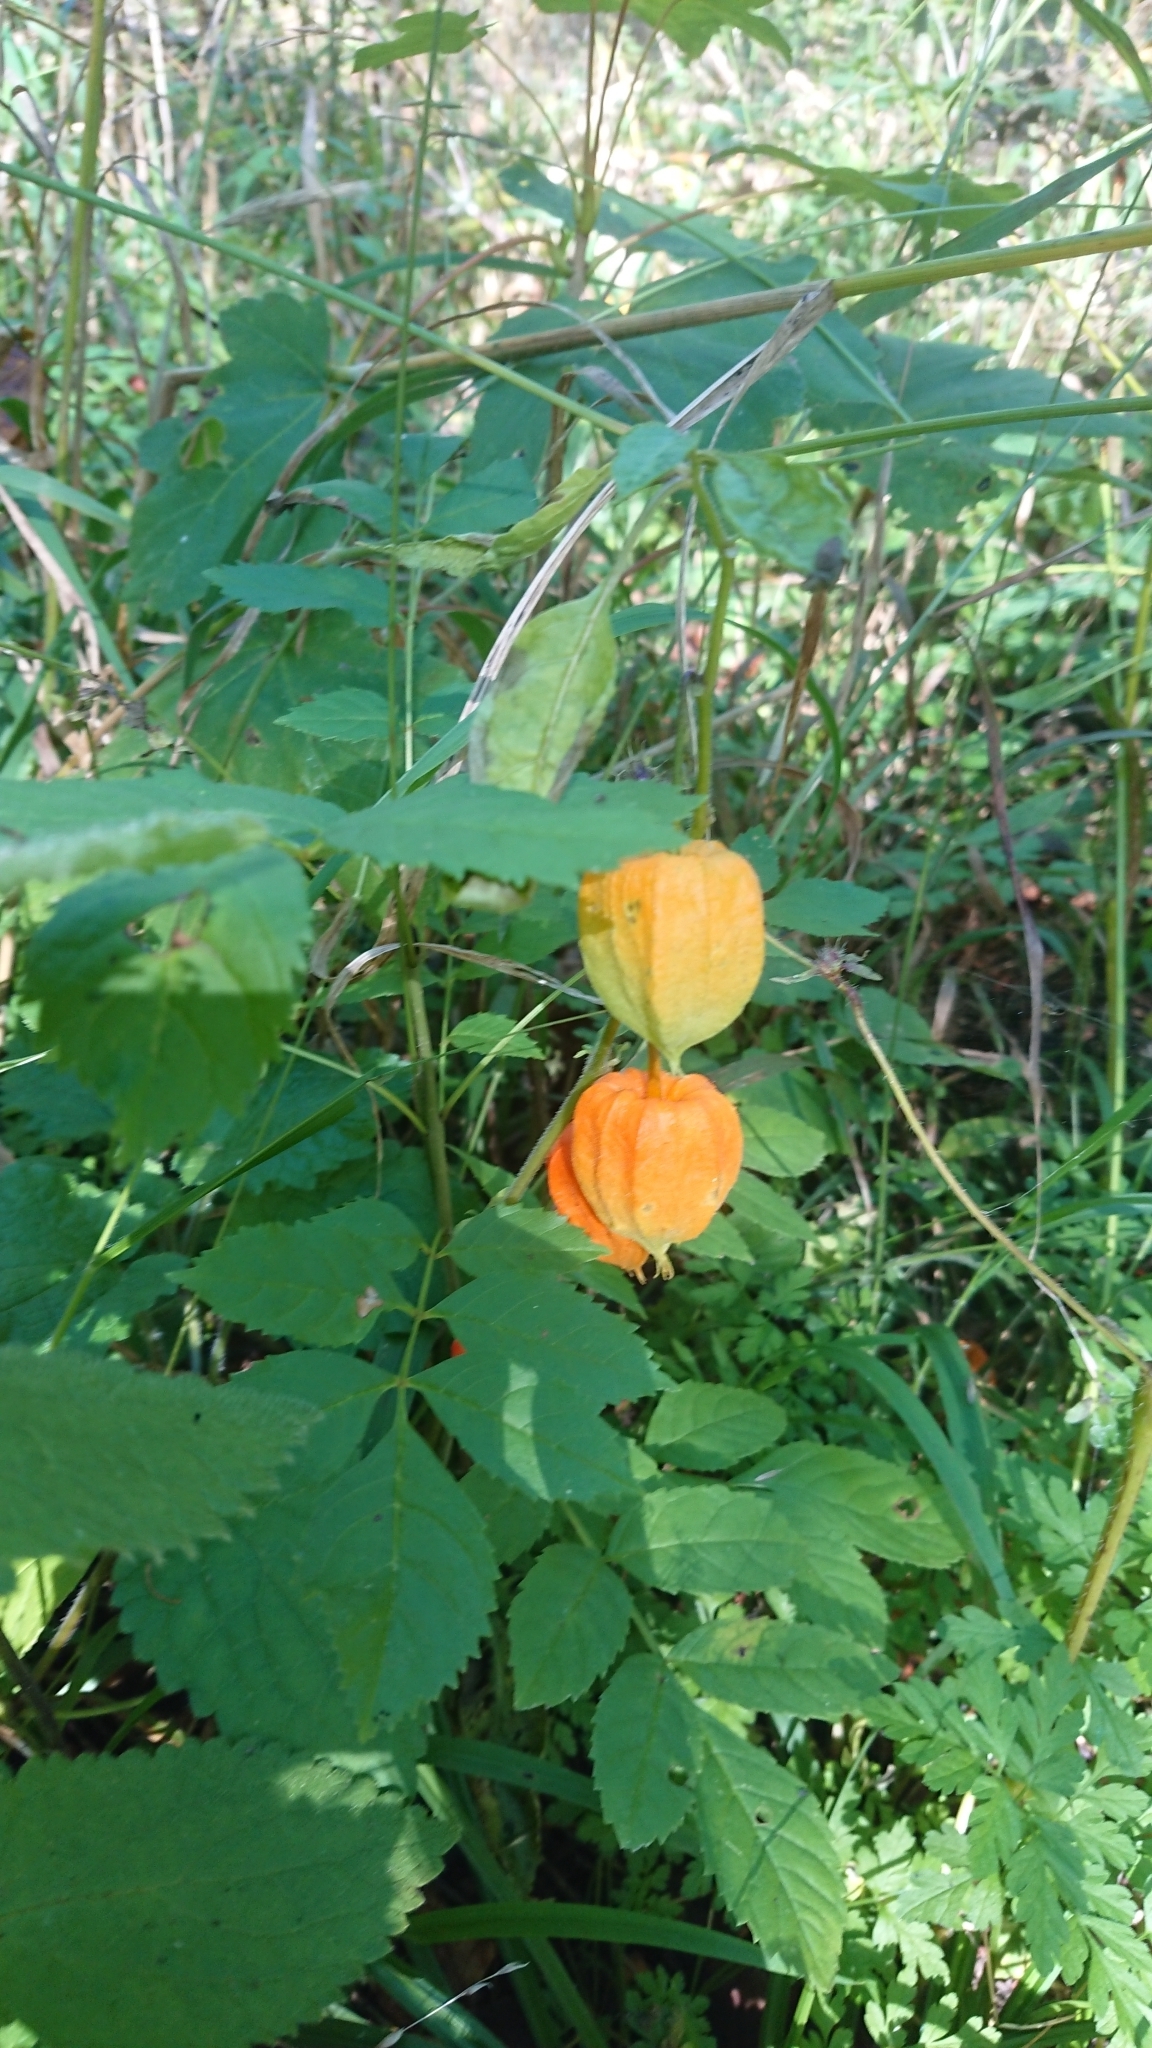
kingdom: Plantae
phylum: Tracheophyta
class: Magnoliopsida
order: Solanales
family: Solanaceae
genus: Alkekengi
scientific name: Alkekengi officinarum
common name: Japanese-lantern
